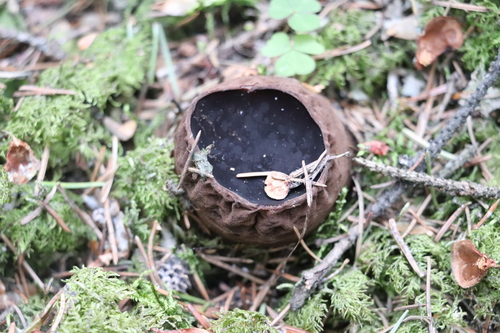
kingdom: Fungi
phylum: Ascomycota
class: Pezizomycetes
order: Pezizales
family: Sarcosomataceae
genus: Sarcosoma
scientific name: Sarcosoma globosum
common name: Charred-pancake cup
